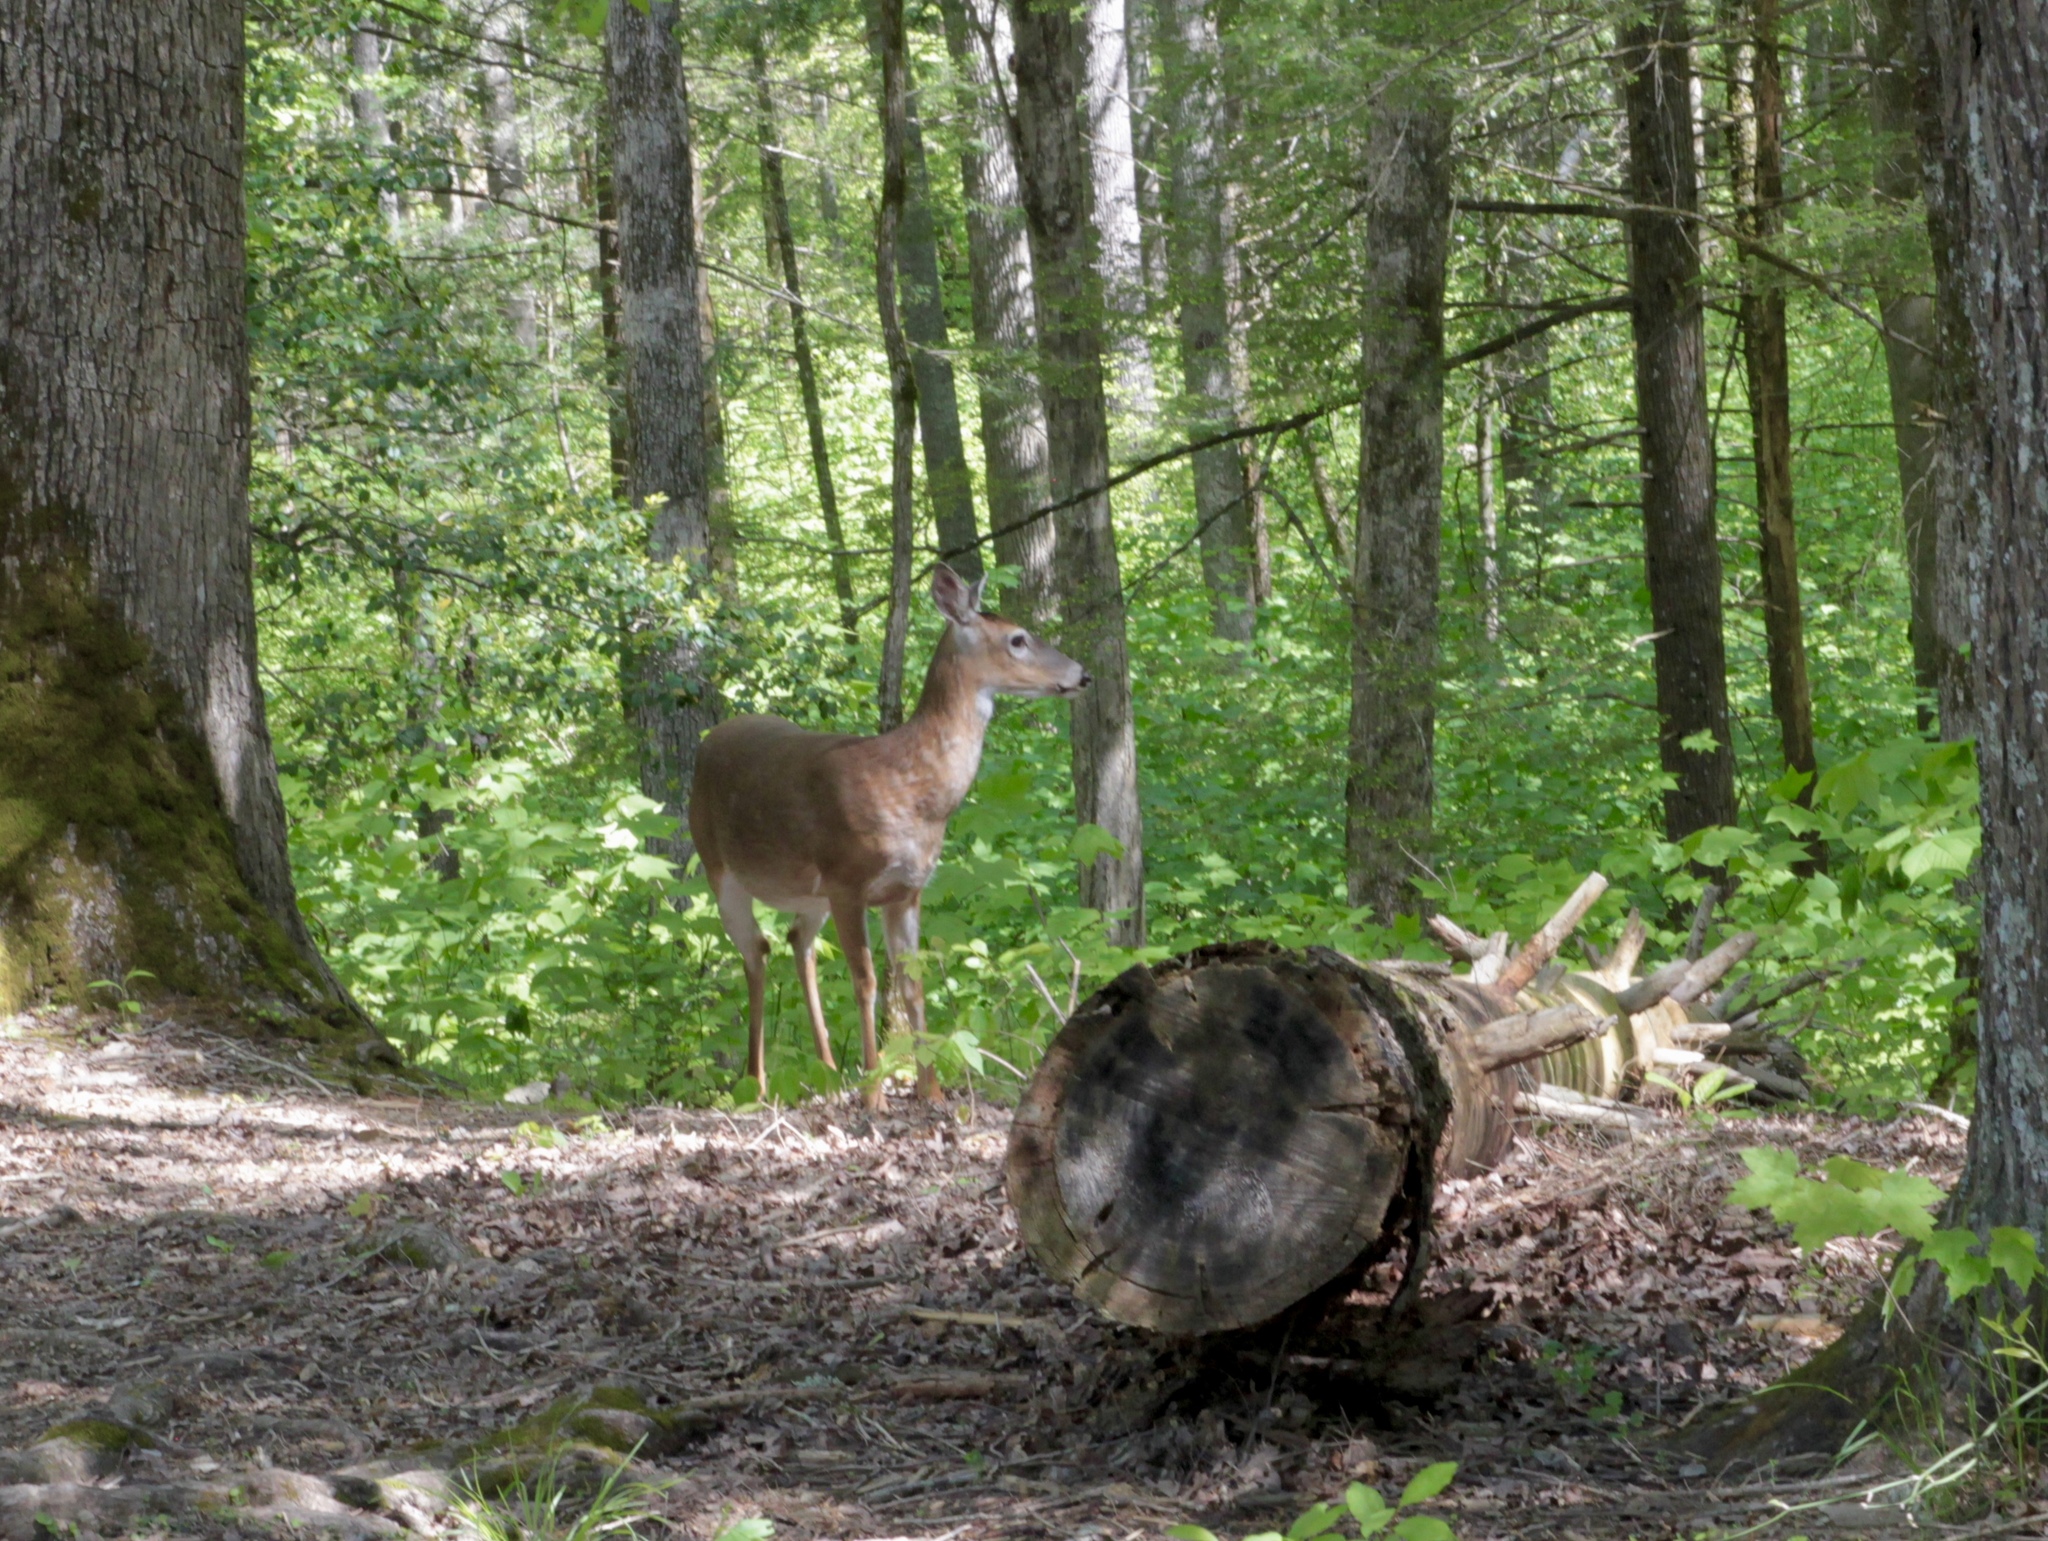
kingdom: Animalia
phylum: Chordata
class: Mammalia
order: Artiodactyla
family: Cervidae
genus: Odocoileus
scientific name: Odocoileus virginianus
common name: White-tailed deer
